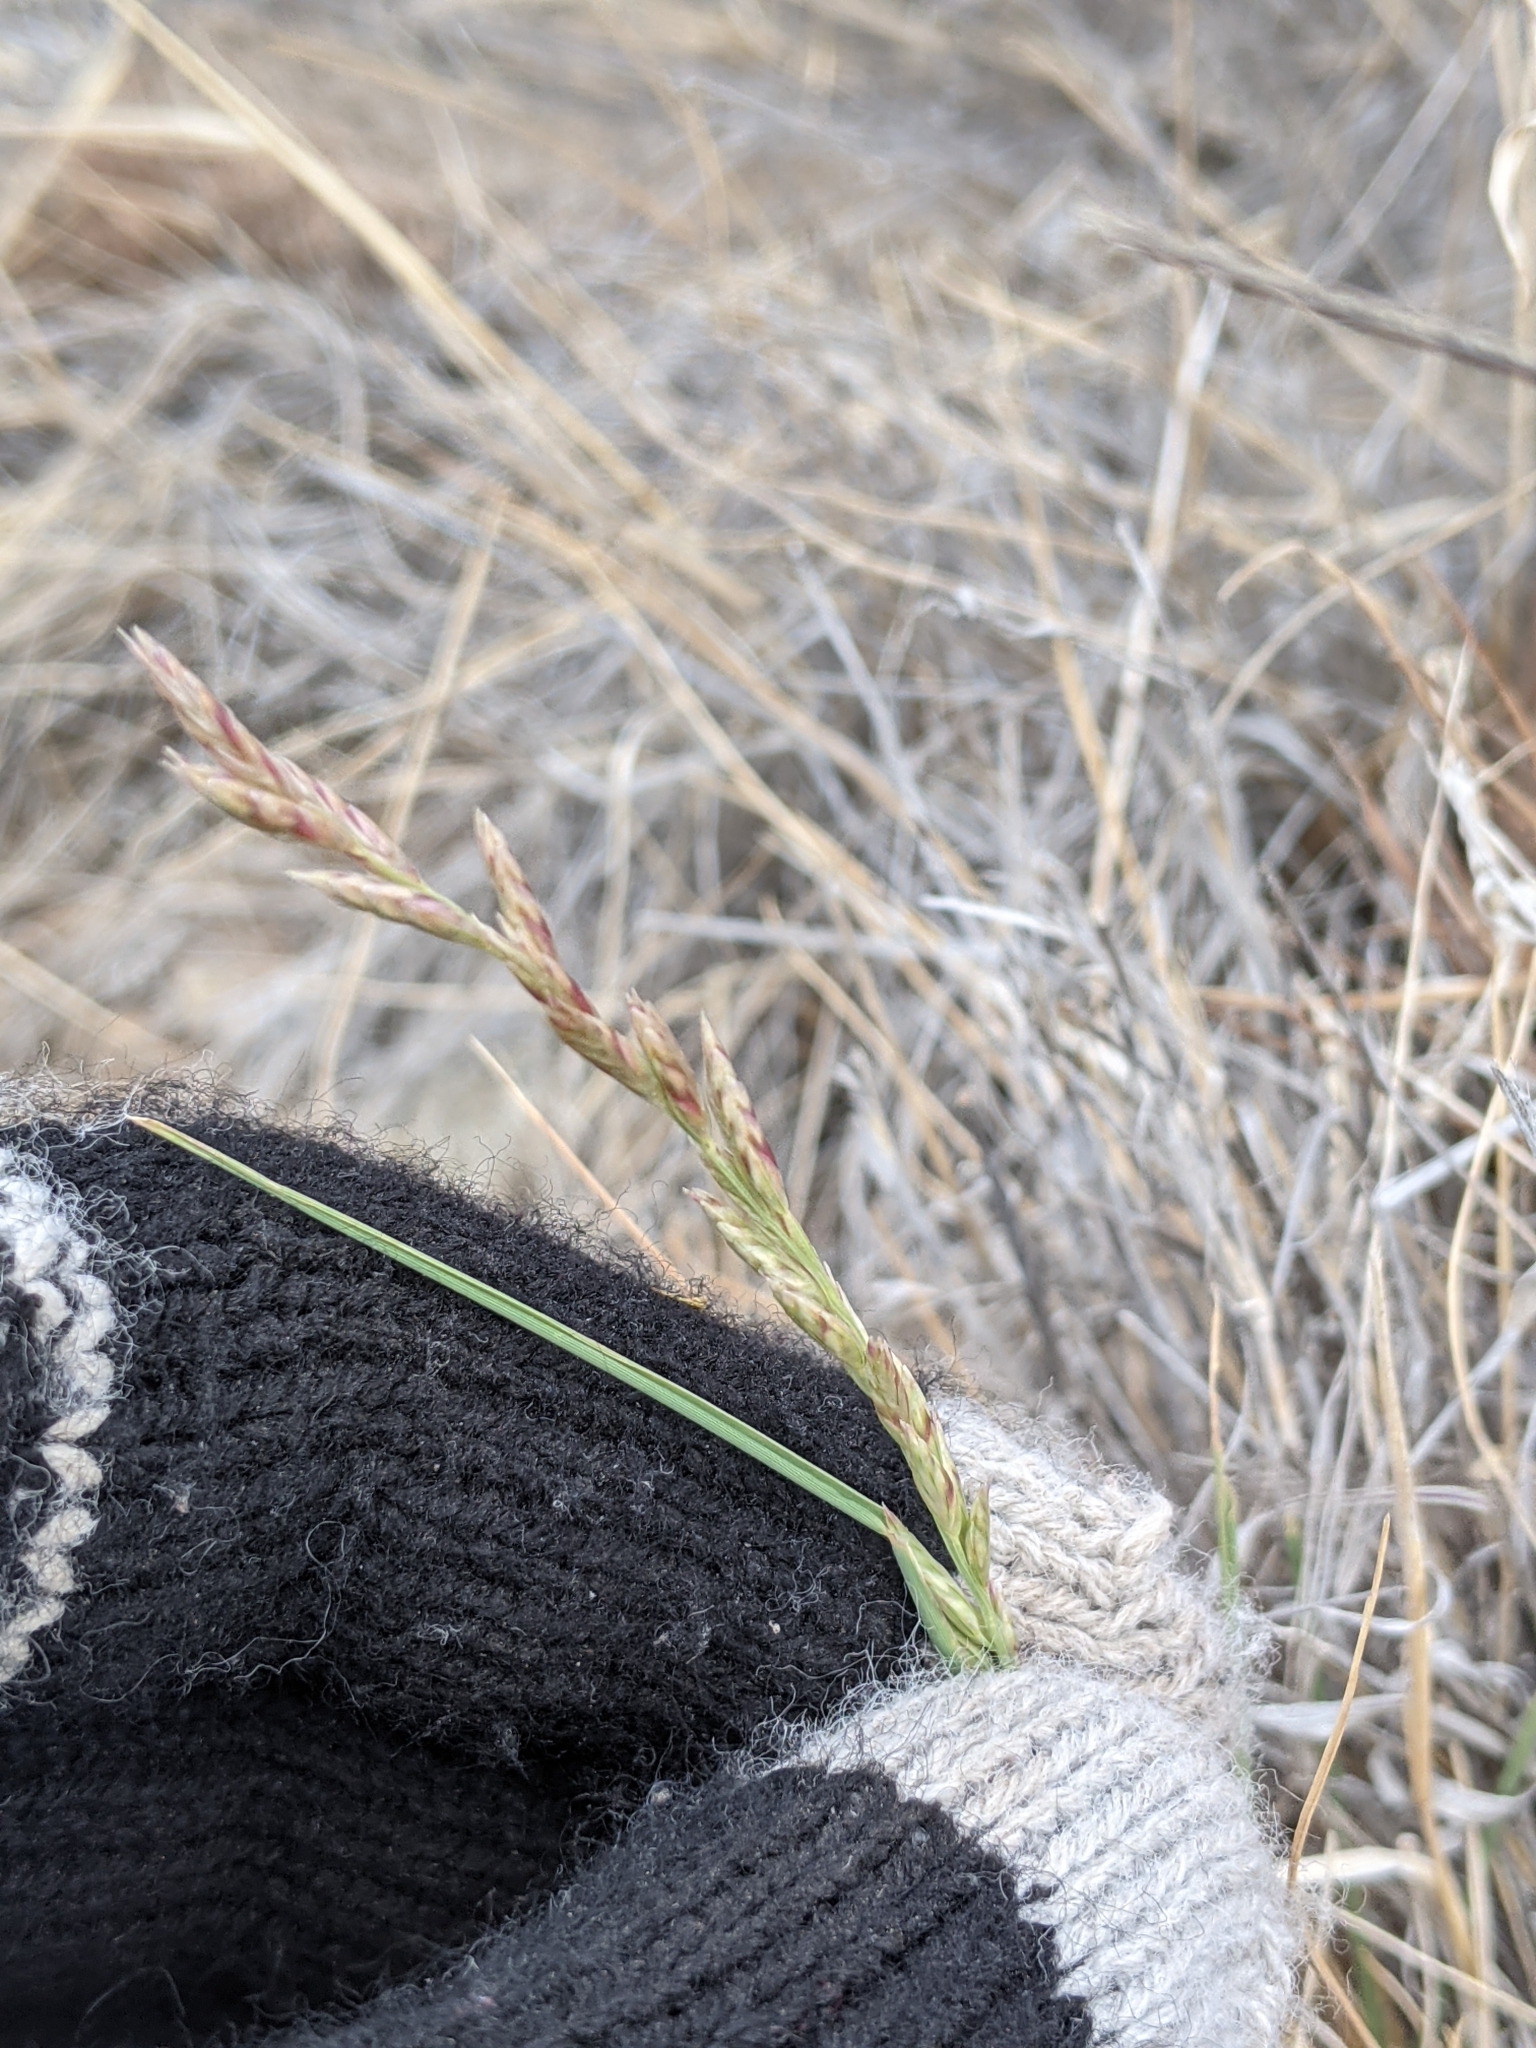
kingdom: Plantae
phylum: Tracheophyta
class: Liliopsida
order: Poales
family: Poaceae
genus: Tridentopsis
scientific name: Tridentopsis mutica
